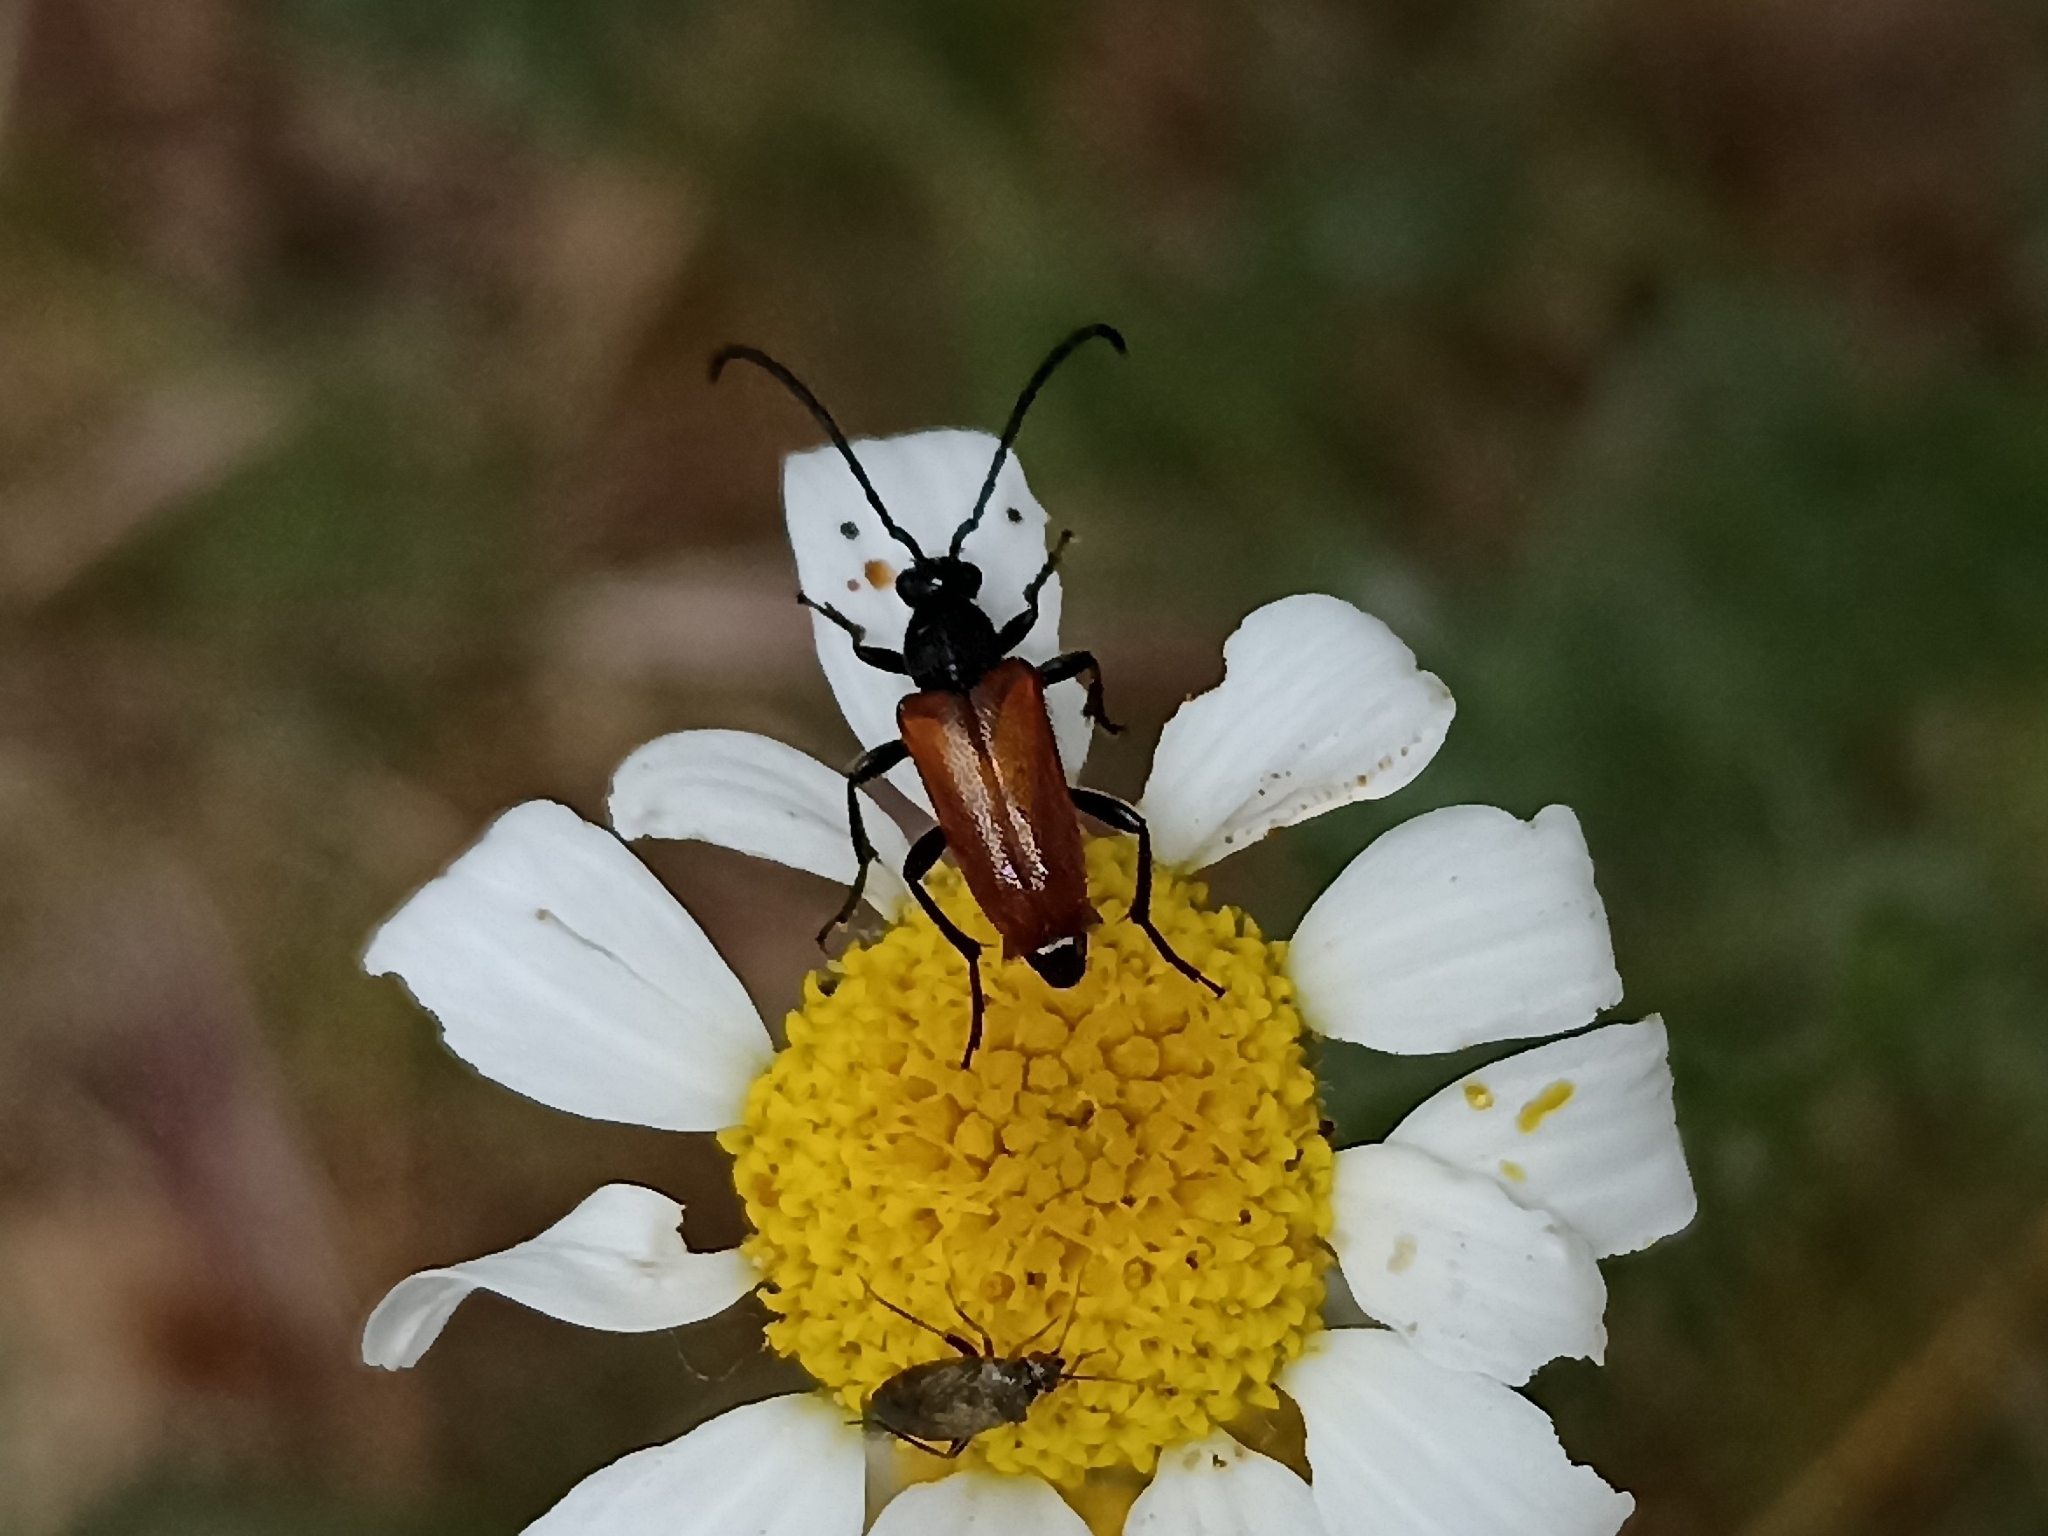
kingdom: Animalia
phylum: Arthropoda
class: Insecta
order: Coleoptera
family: Cerambycidae
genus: Pseudovadonia
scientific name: Pseudovadonia livida
